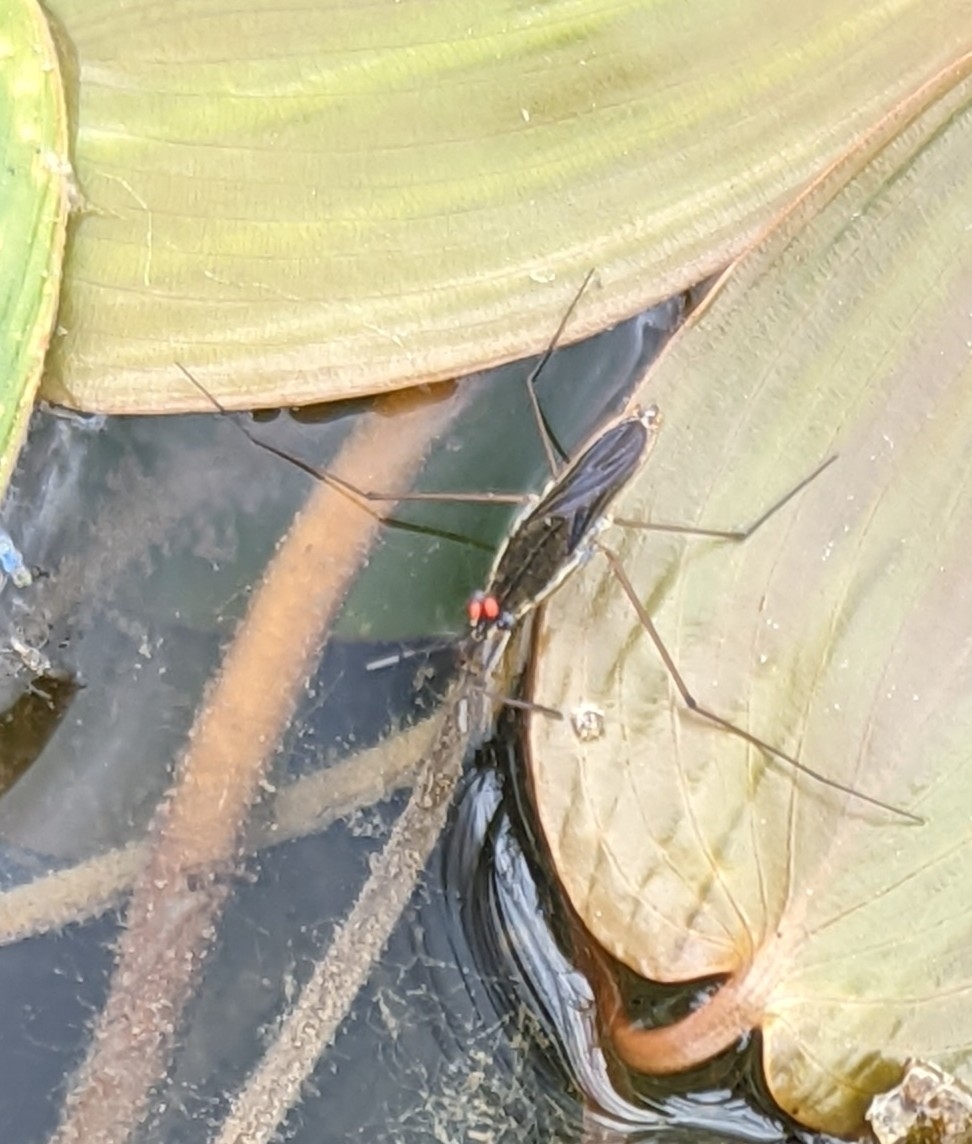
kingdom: Animalia
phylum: Arthropoda
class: Insecta
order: Hemiptera
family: Gerridae
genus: Gerris
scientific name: Gerris
